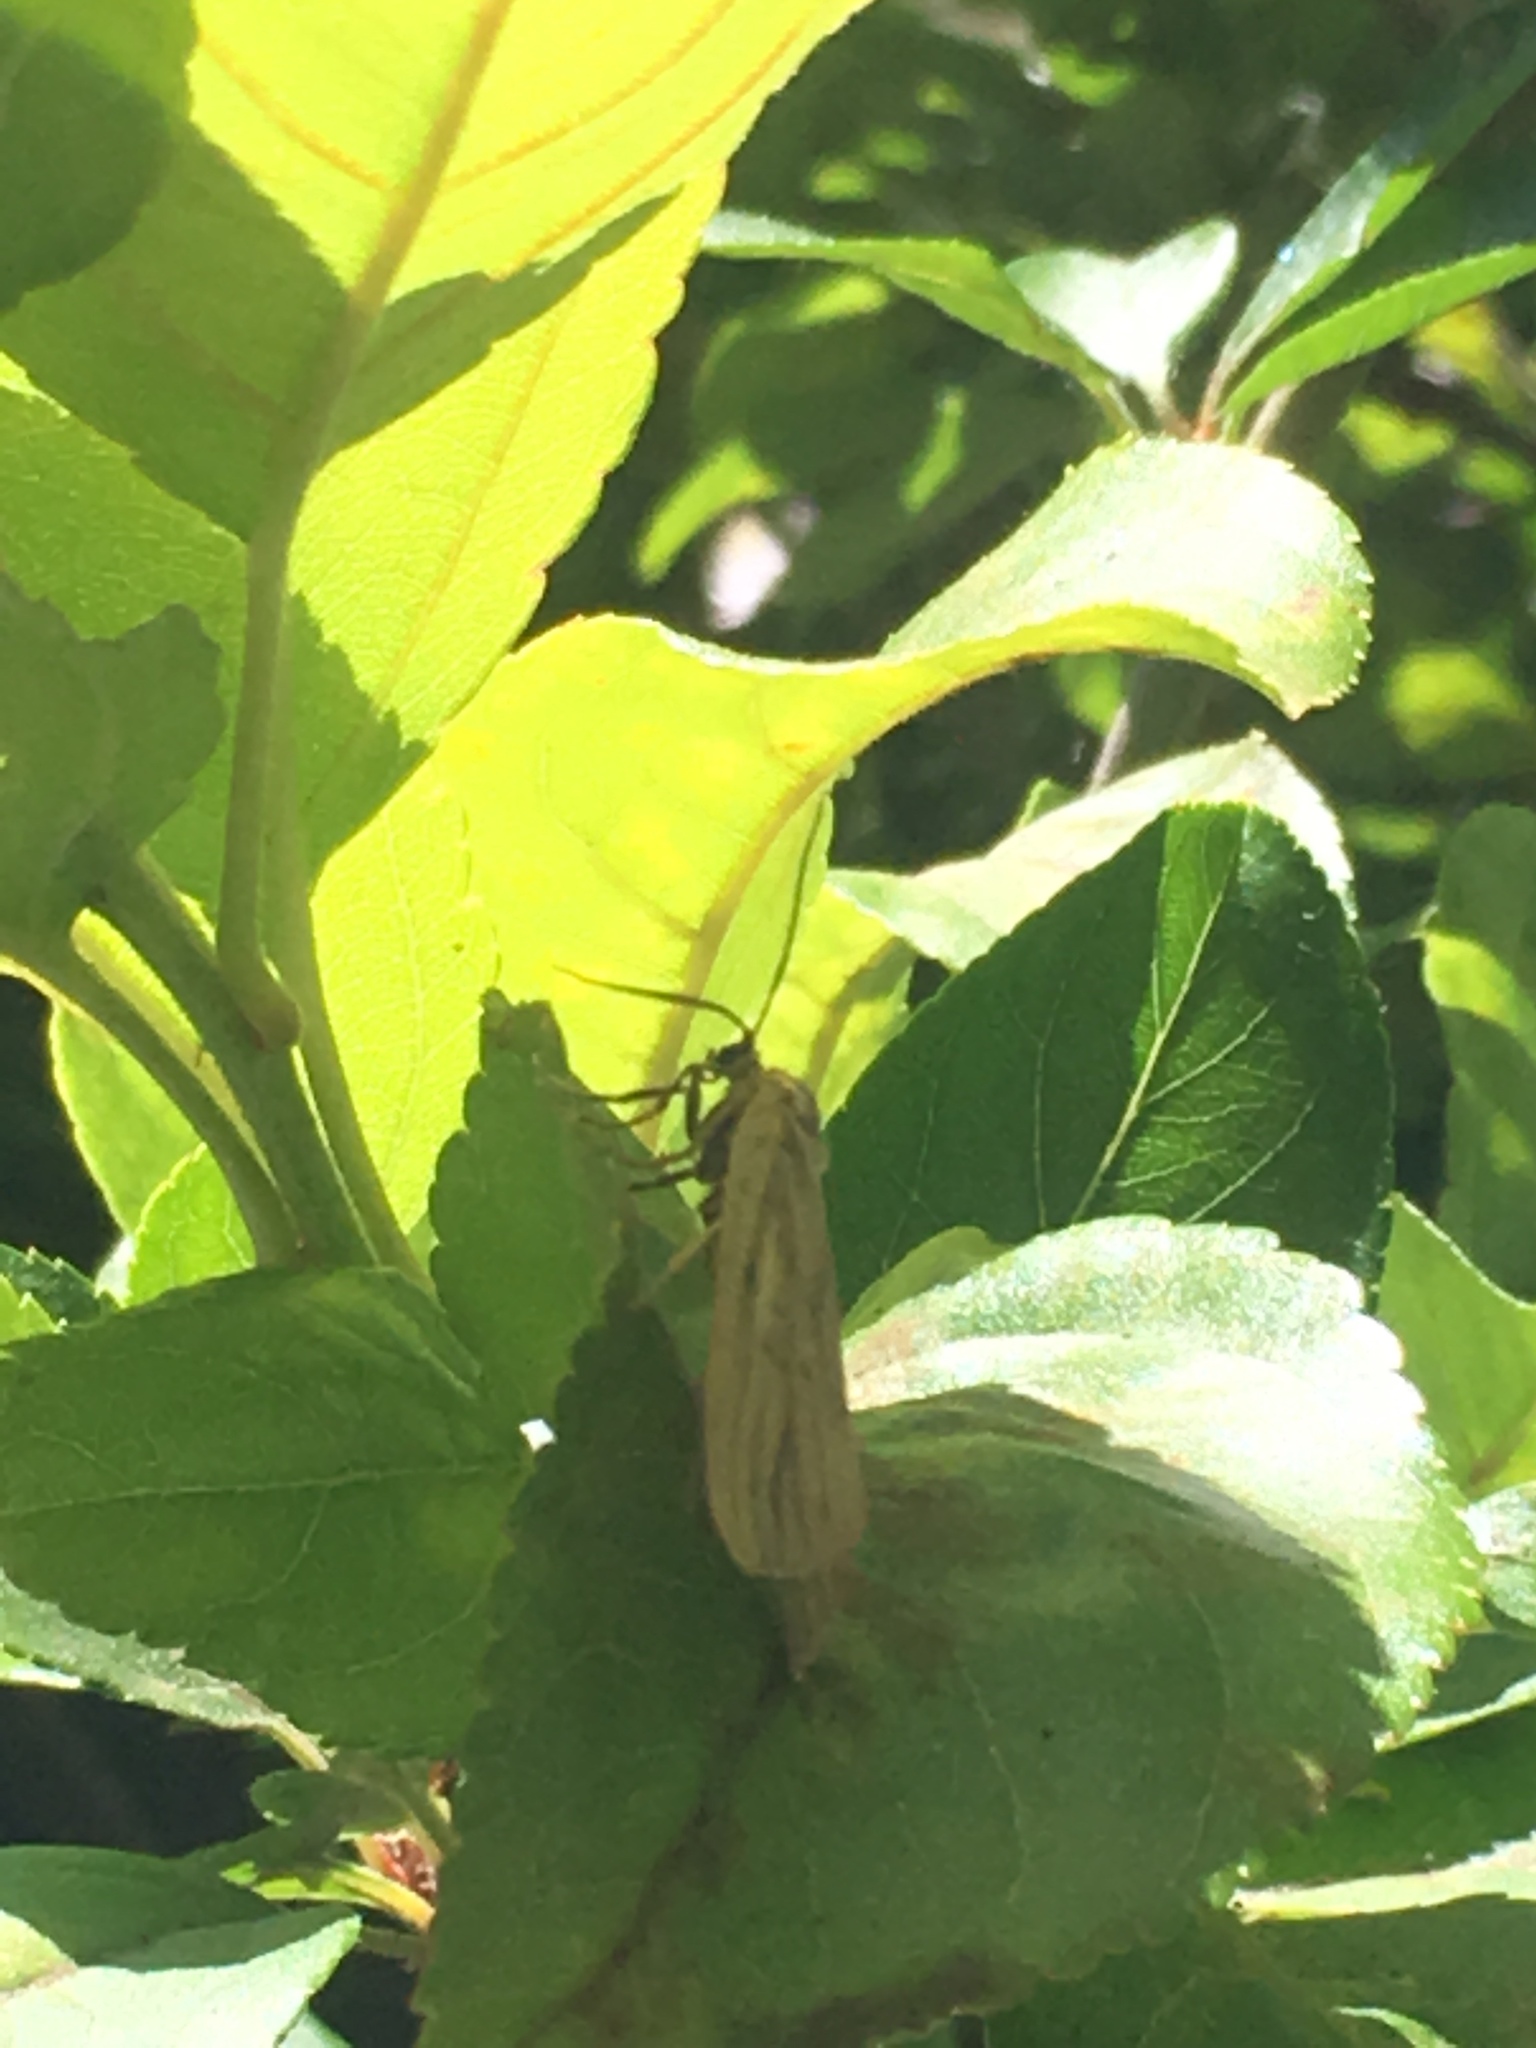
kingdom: Animalia
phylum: Arthropoda
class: Insecta
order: Lepidoptera
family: Notodontidae
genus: Phryganidia
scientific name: Phryganidia californica
